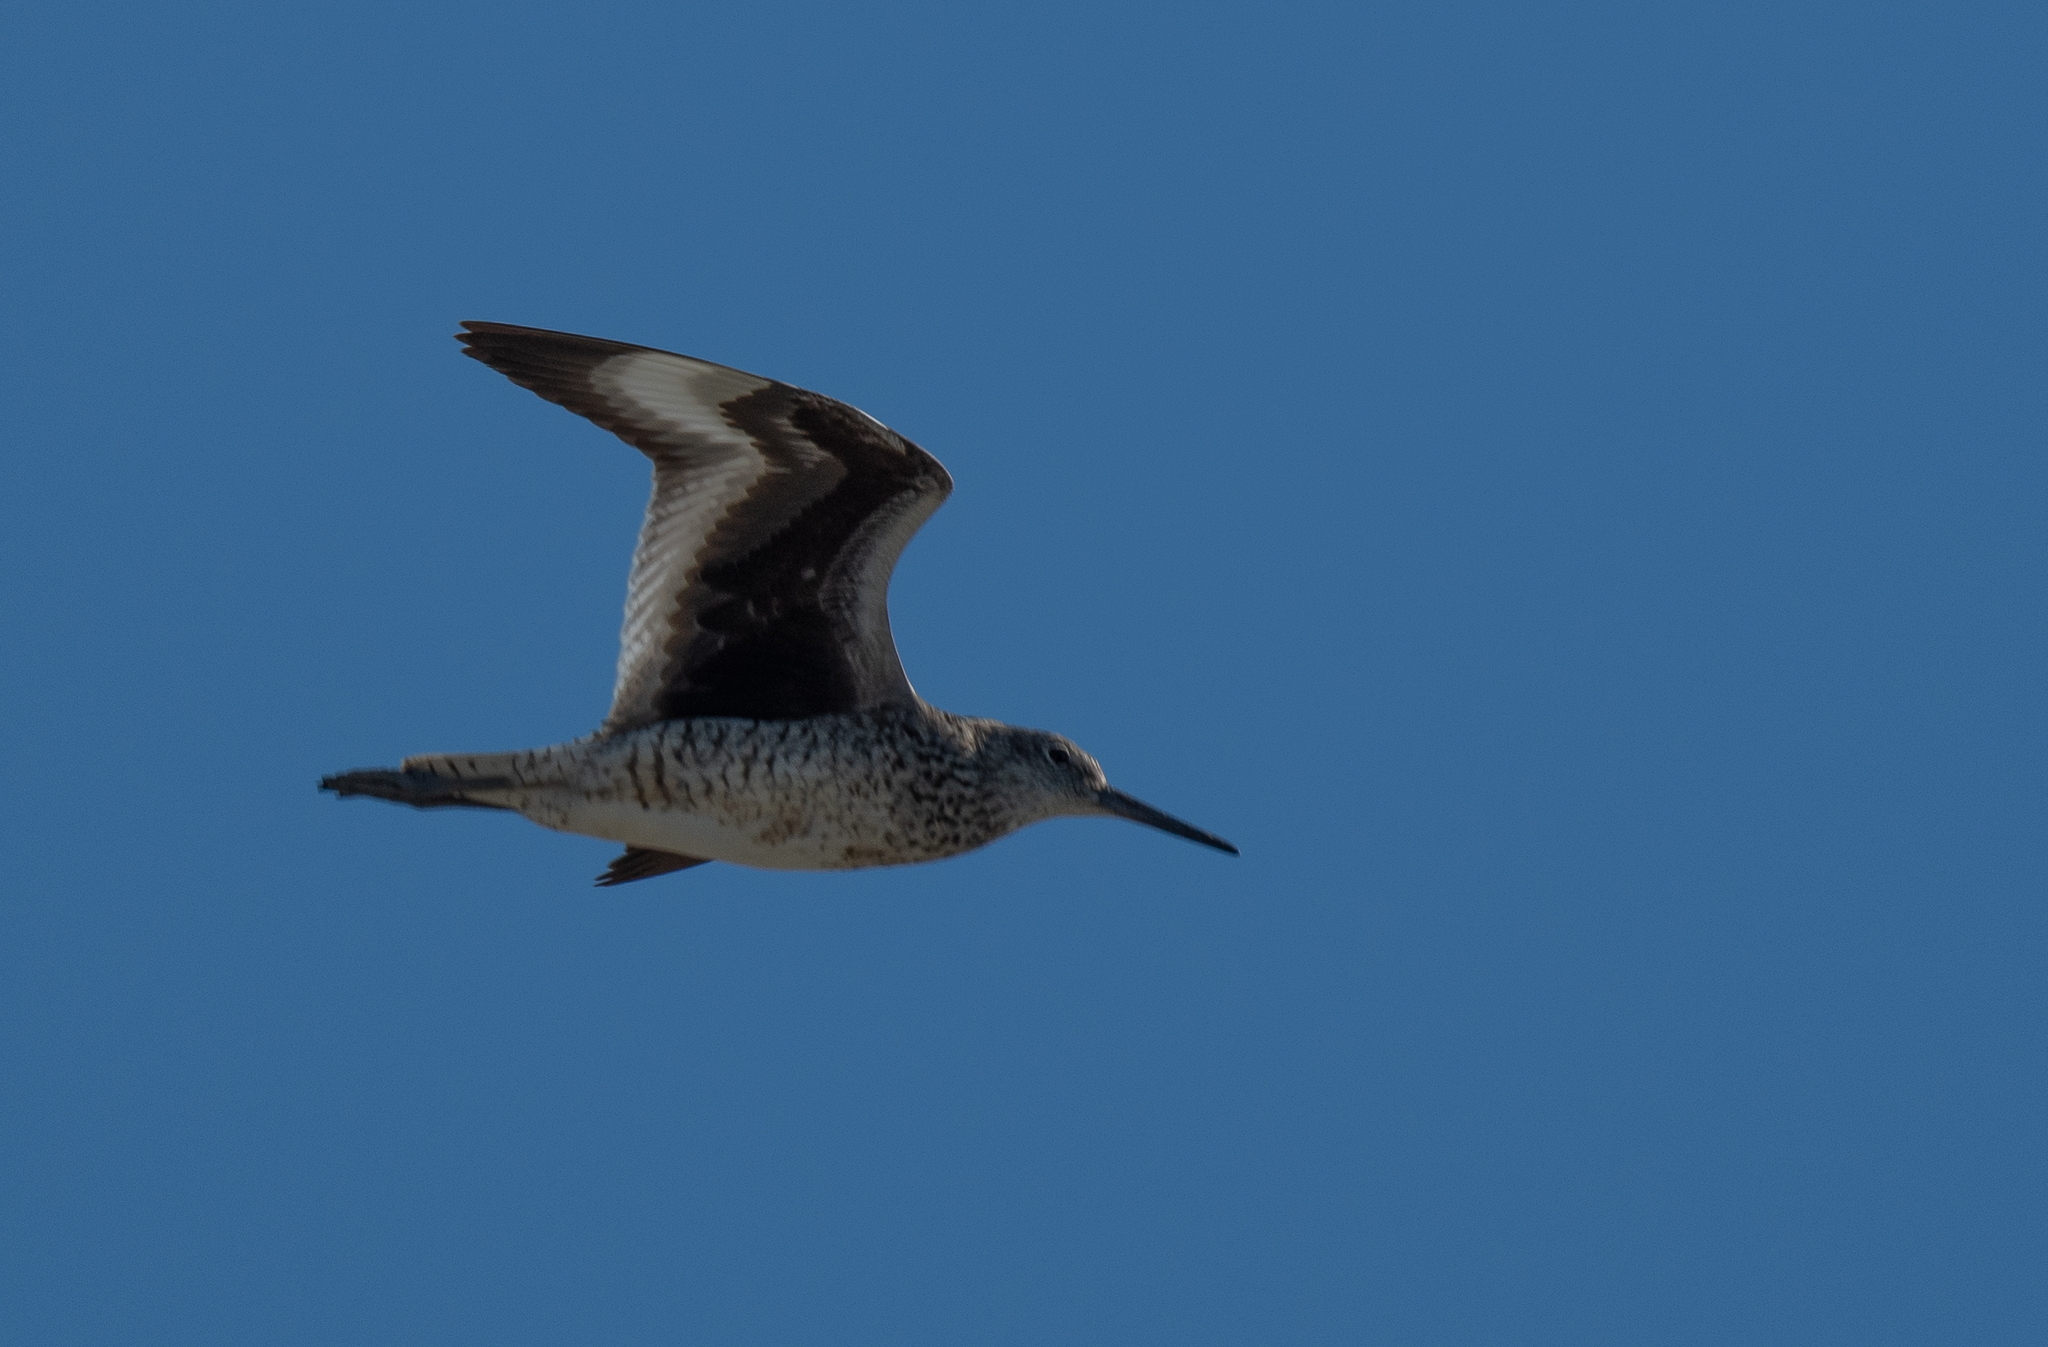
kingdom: Animalia
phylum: Chordata
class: Aves
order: Charadriiformes
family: Scolopacidae
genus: Tringa
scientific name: Tringa semipalmata
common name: Willet
